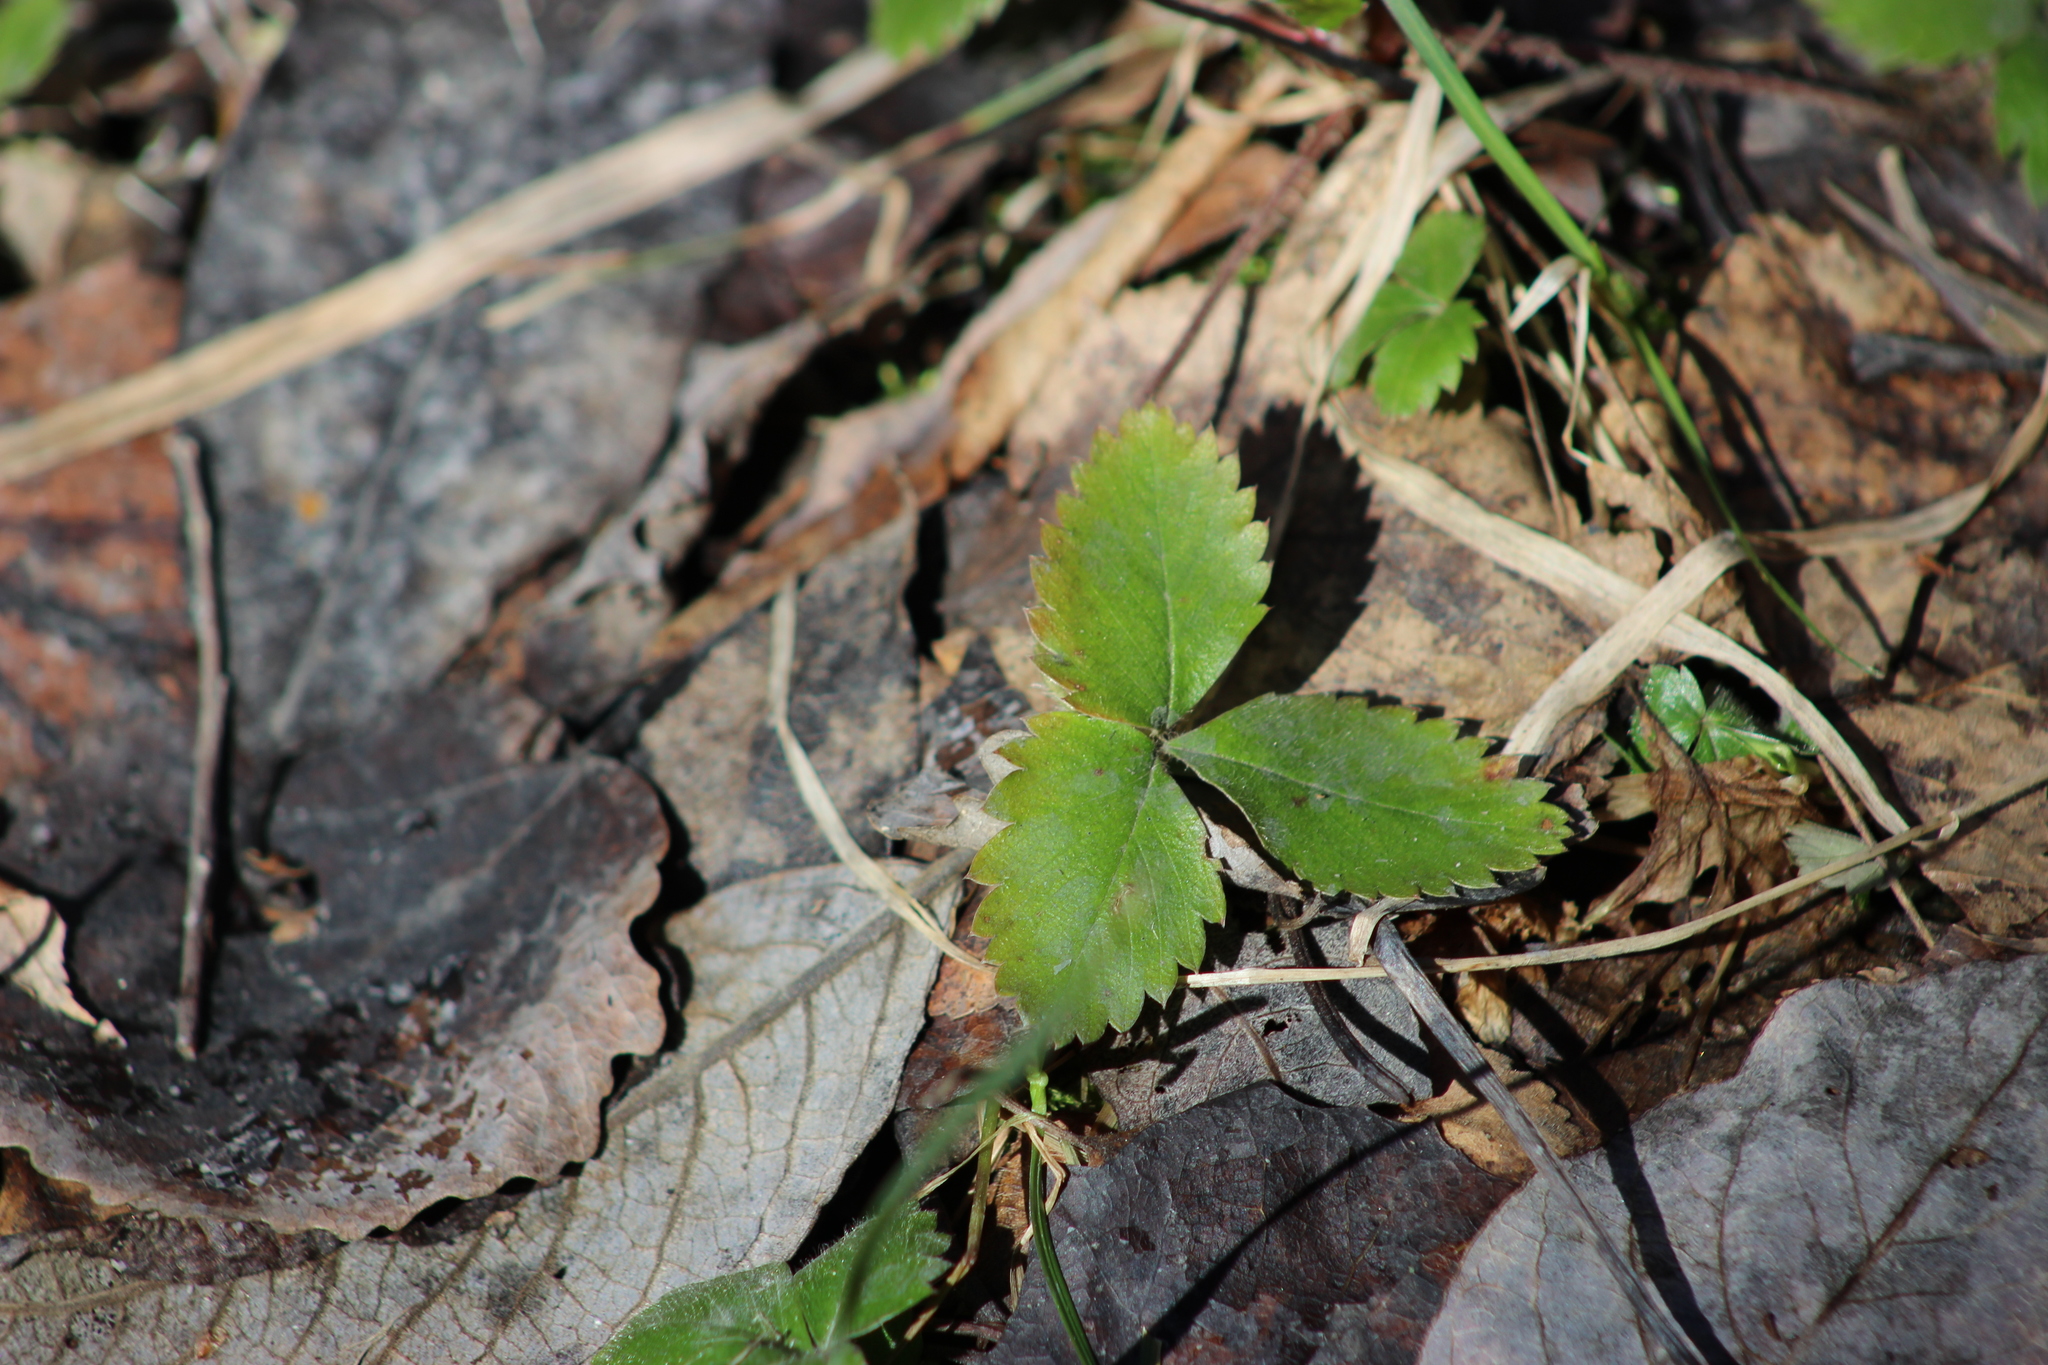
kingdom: Plantae
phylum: Tracheophyta
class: Magnoliopsida
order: Rosales
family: Rosaceae
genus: Fragaria
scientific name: Fragaria vesca
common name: Wild strawberry
